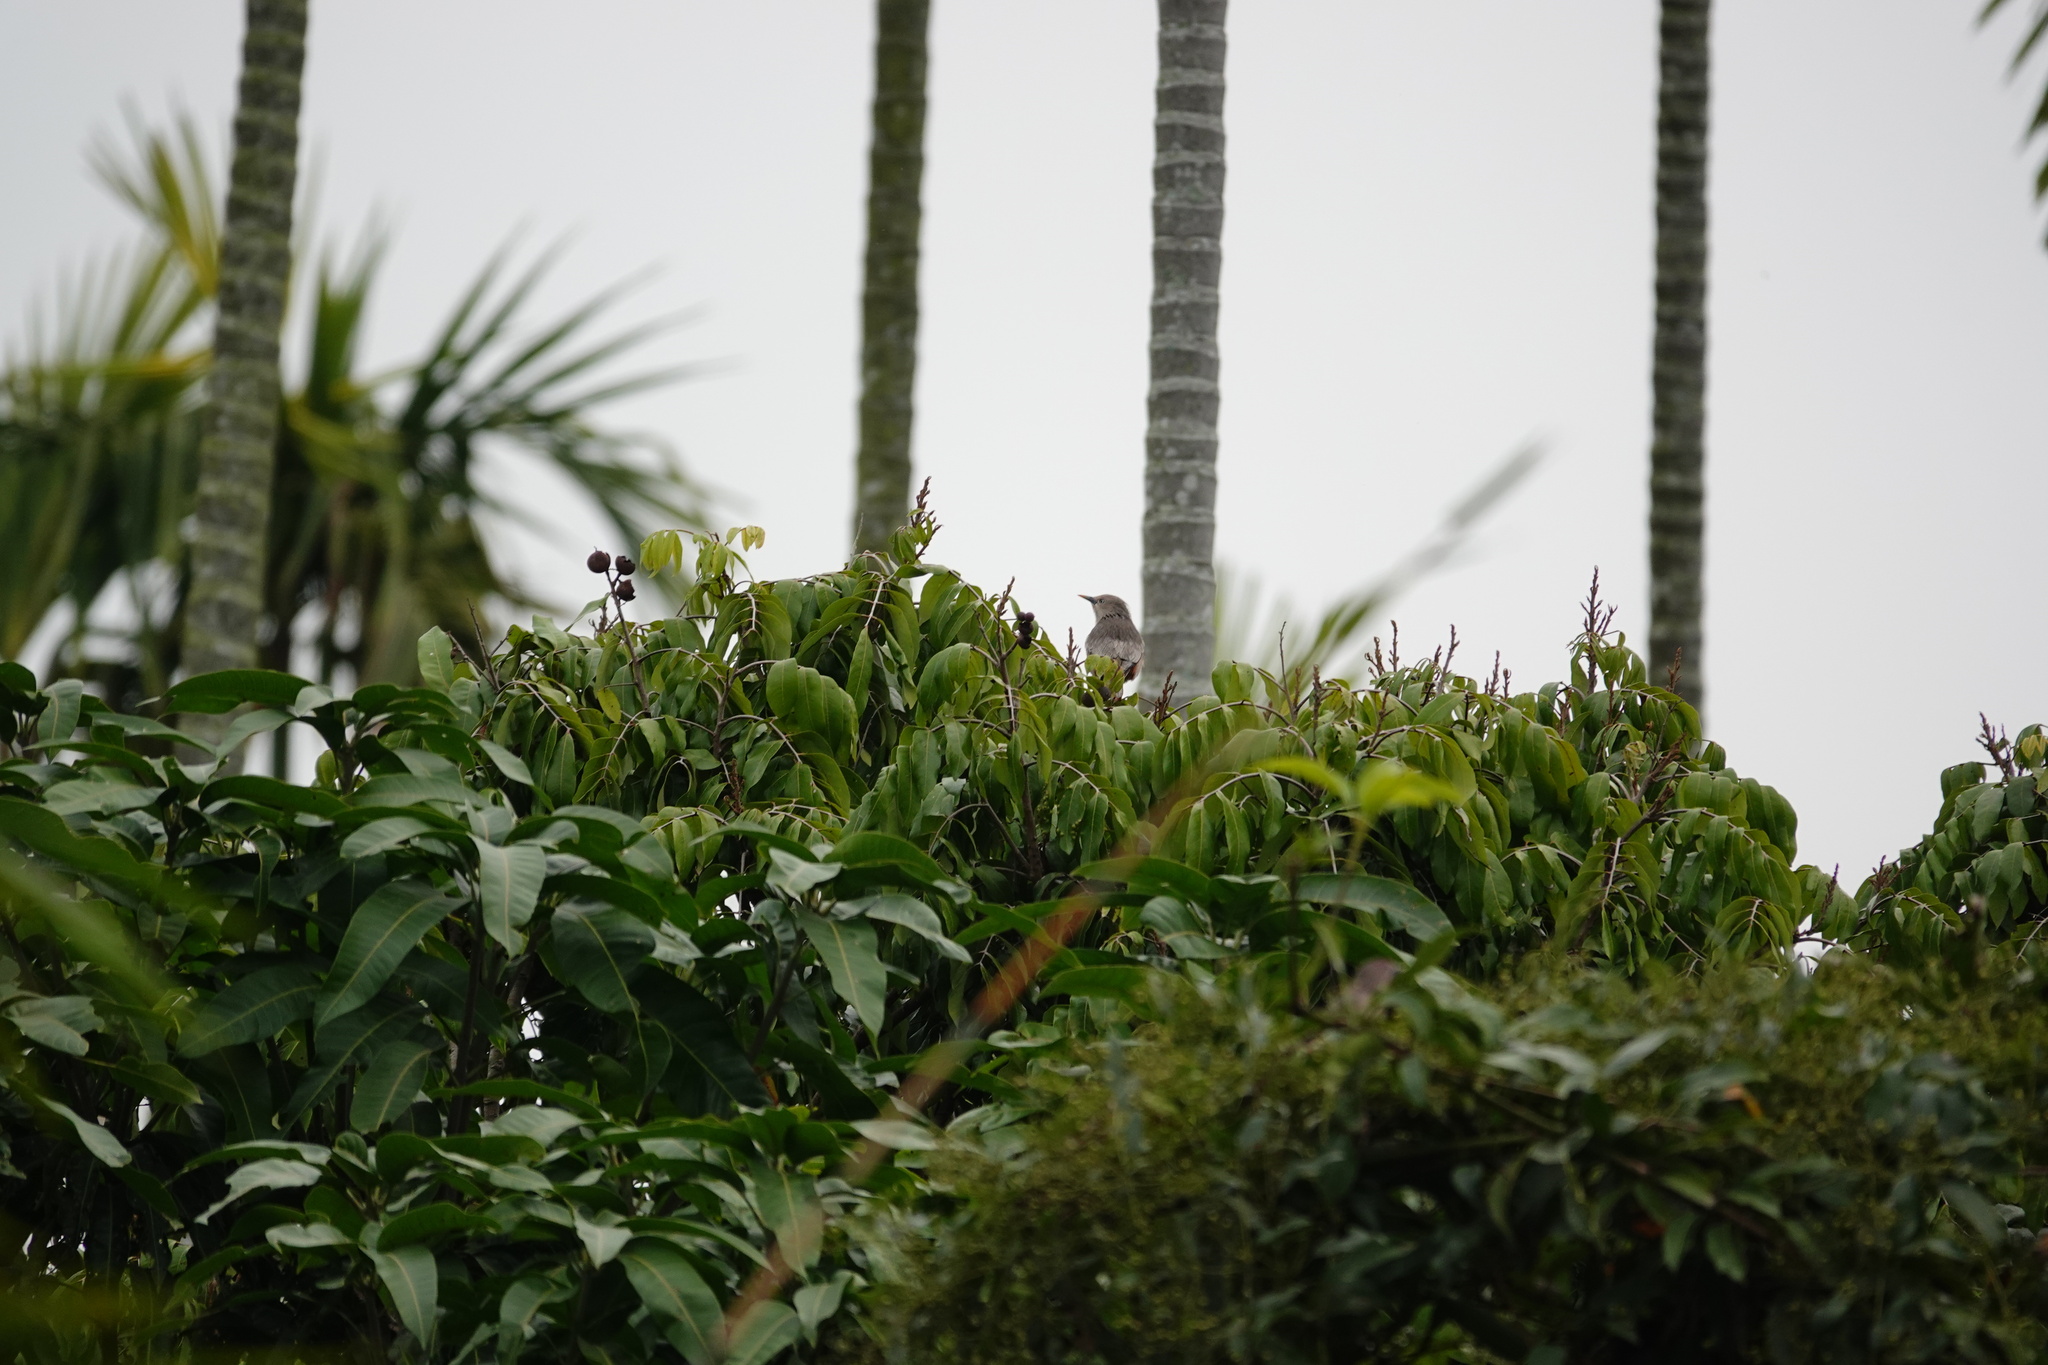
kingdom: Animalia
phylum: Chordata
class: Aves
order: Passeriformes
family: Sturnidae
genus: Sturnia
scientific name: Sturnia malabarica
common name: Chestnut-tailed starling
